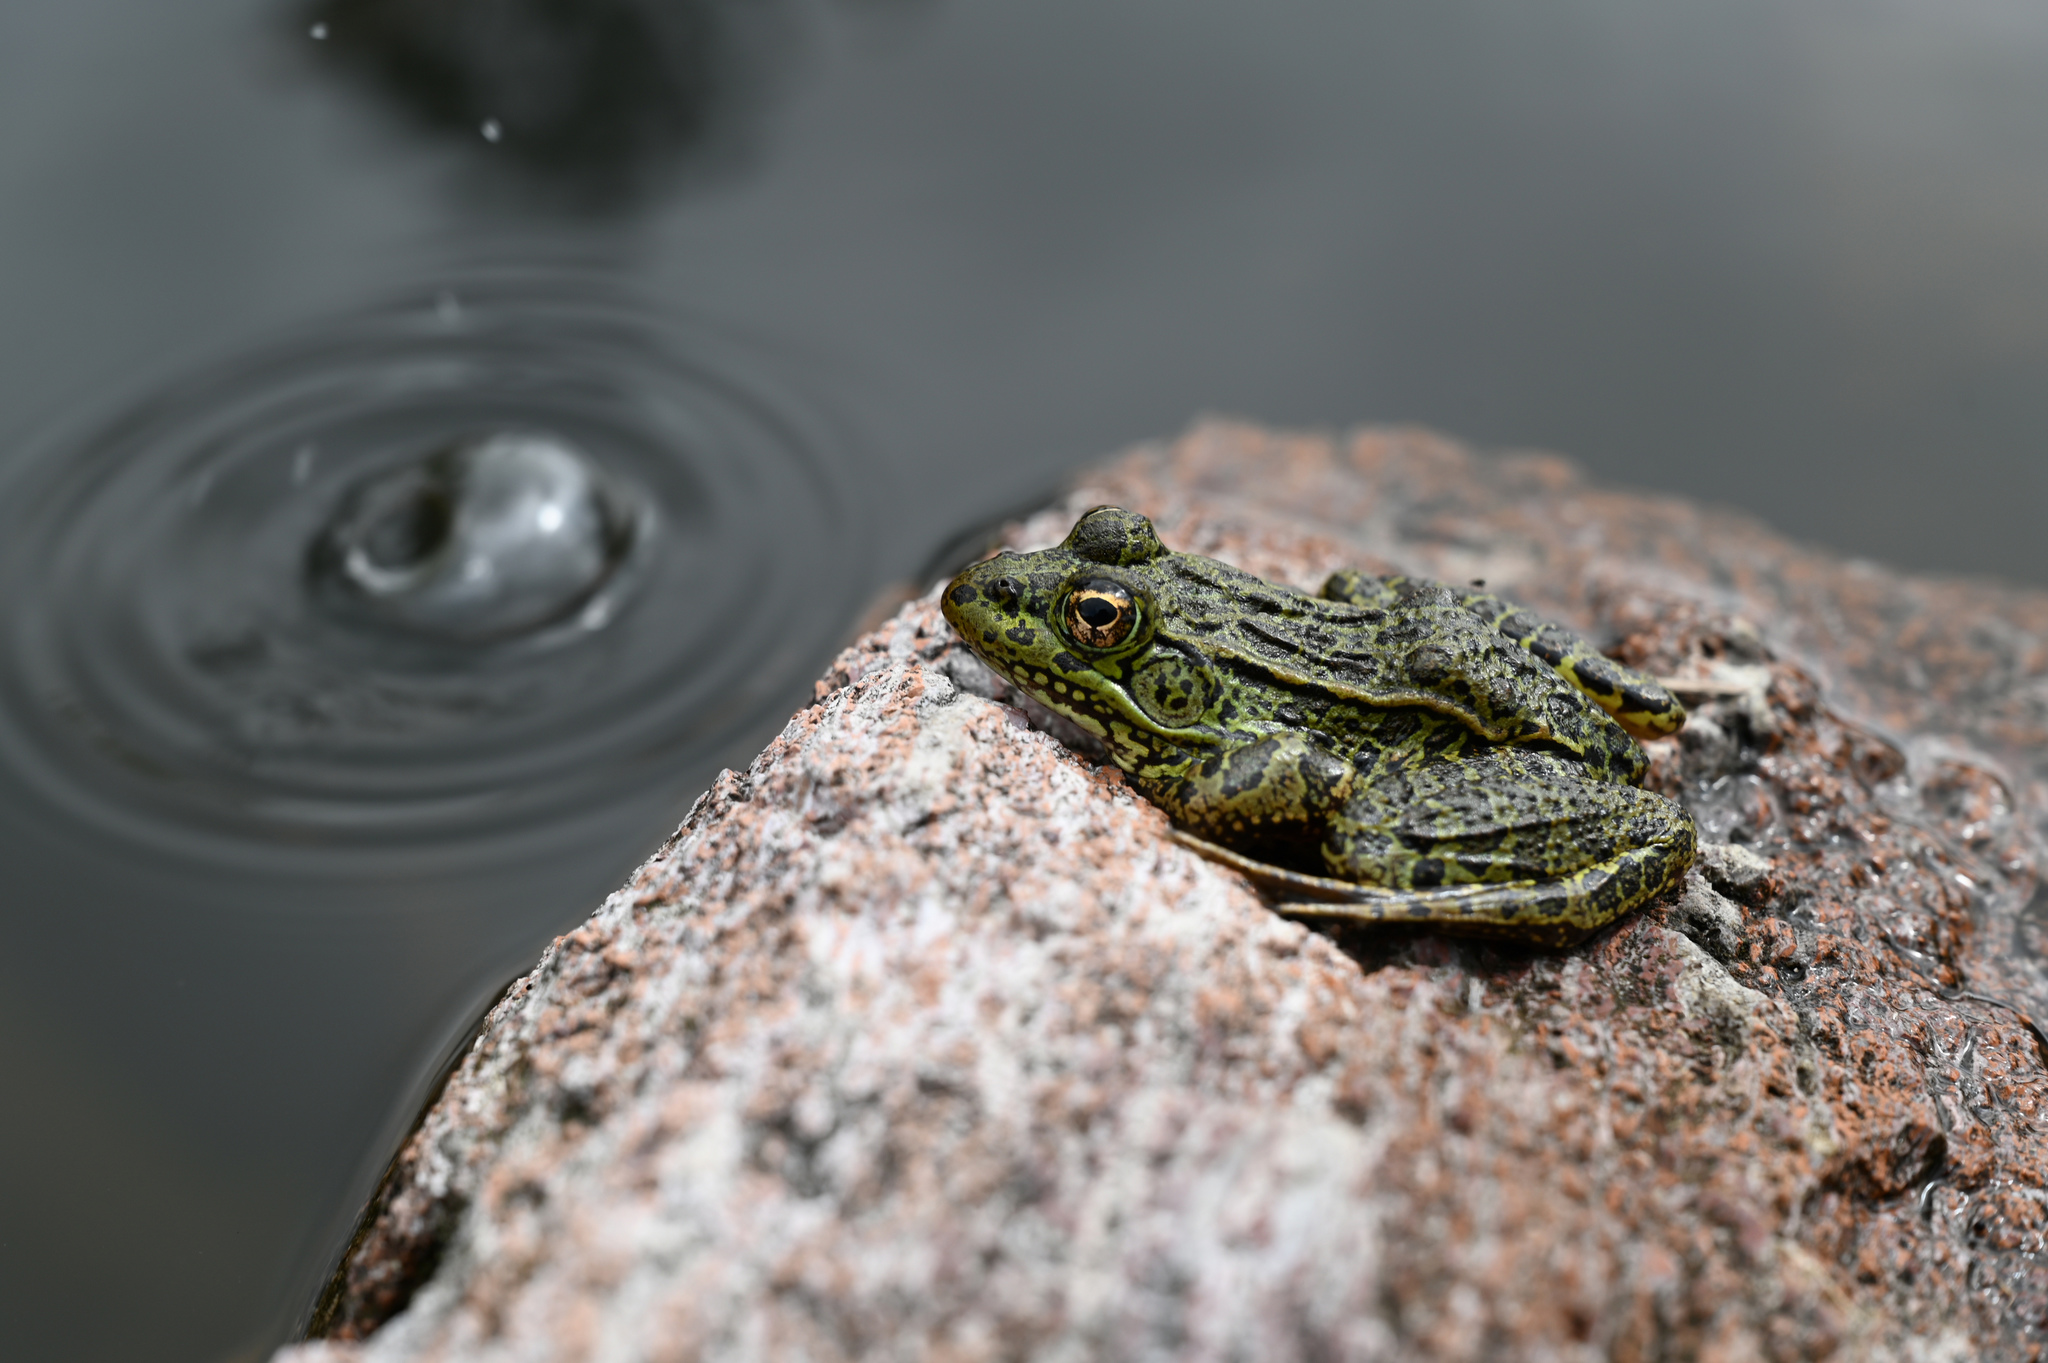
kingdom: Animalia
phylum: Chordata
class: Amphibia
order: Anura
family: Ranidae
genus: Lithobates
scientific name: Lithobates chiricahuensis
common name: Chiricahua leopard frog
